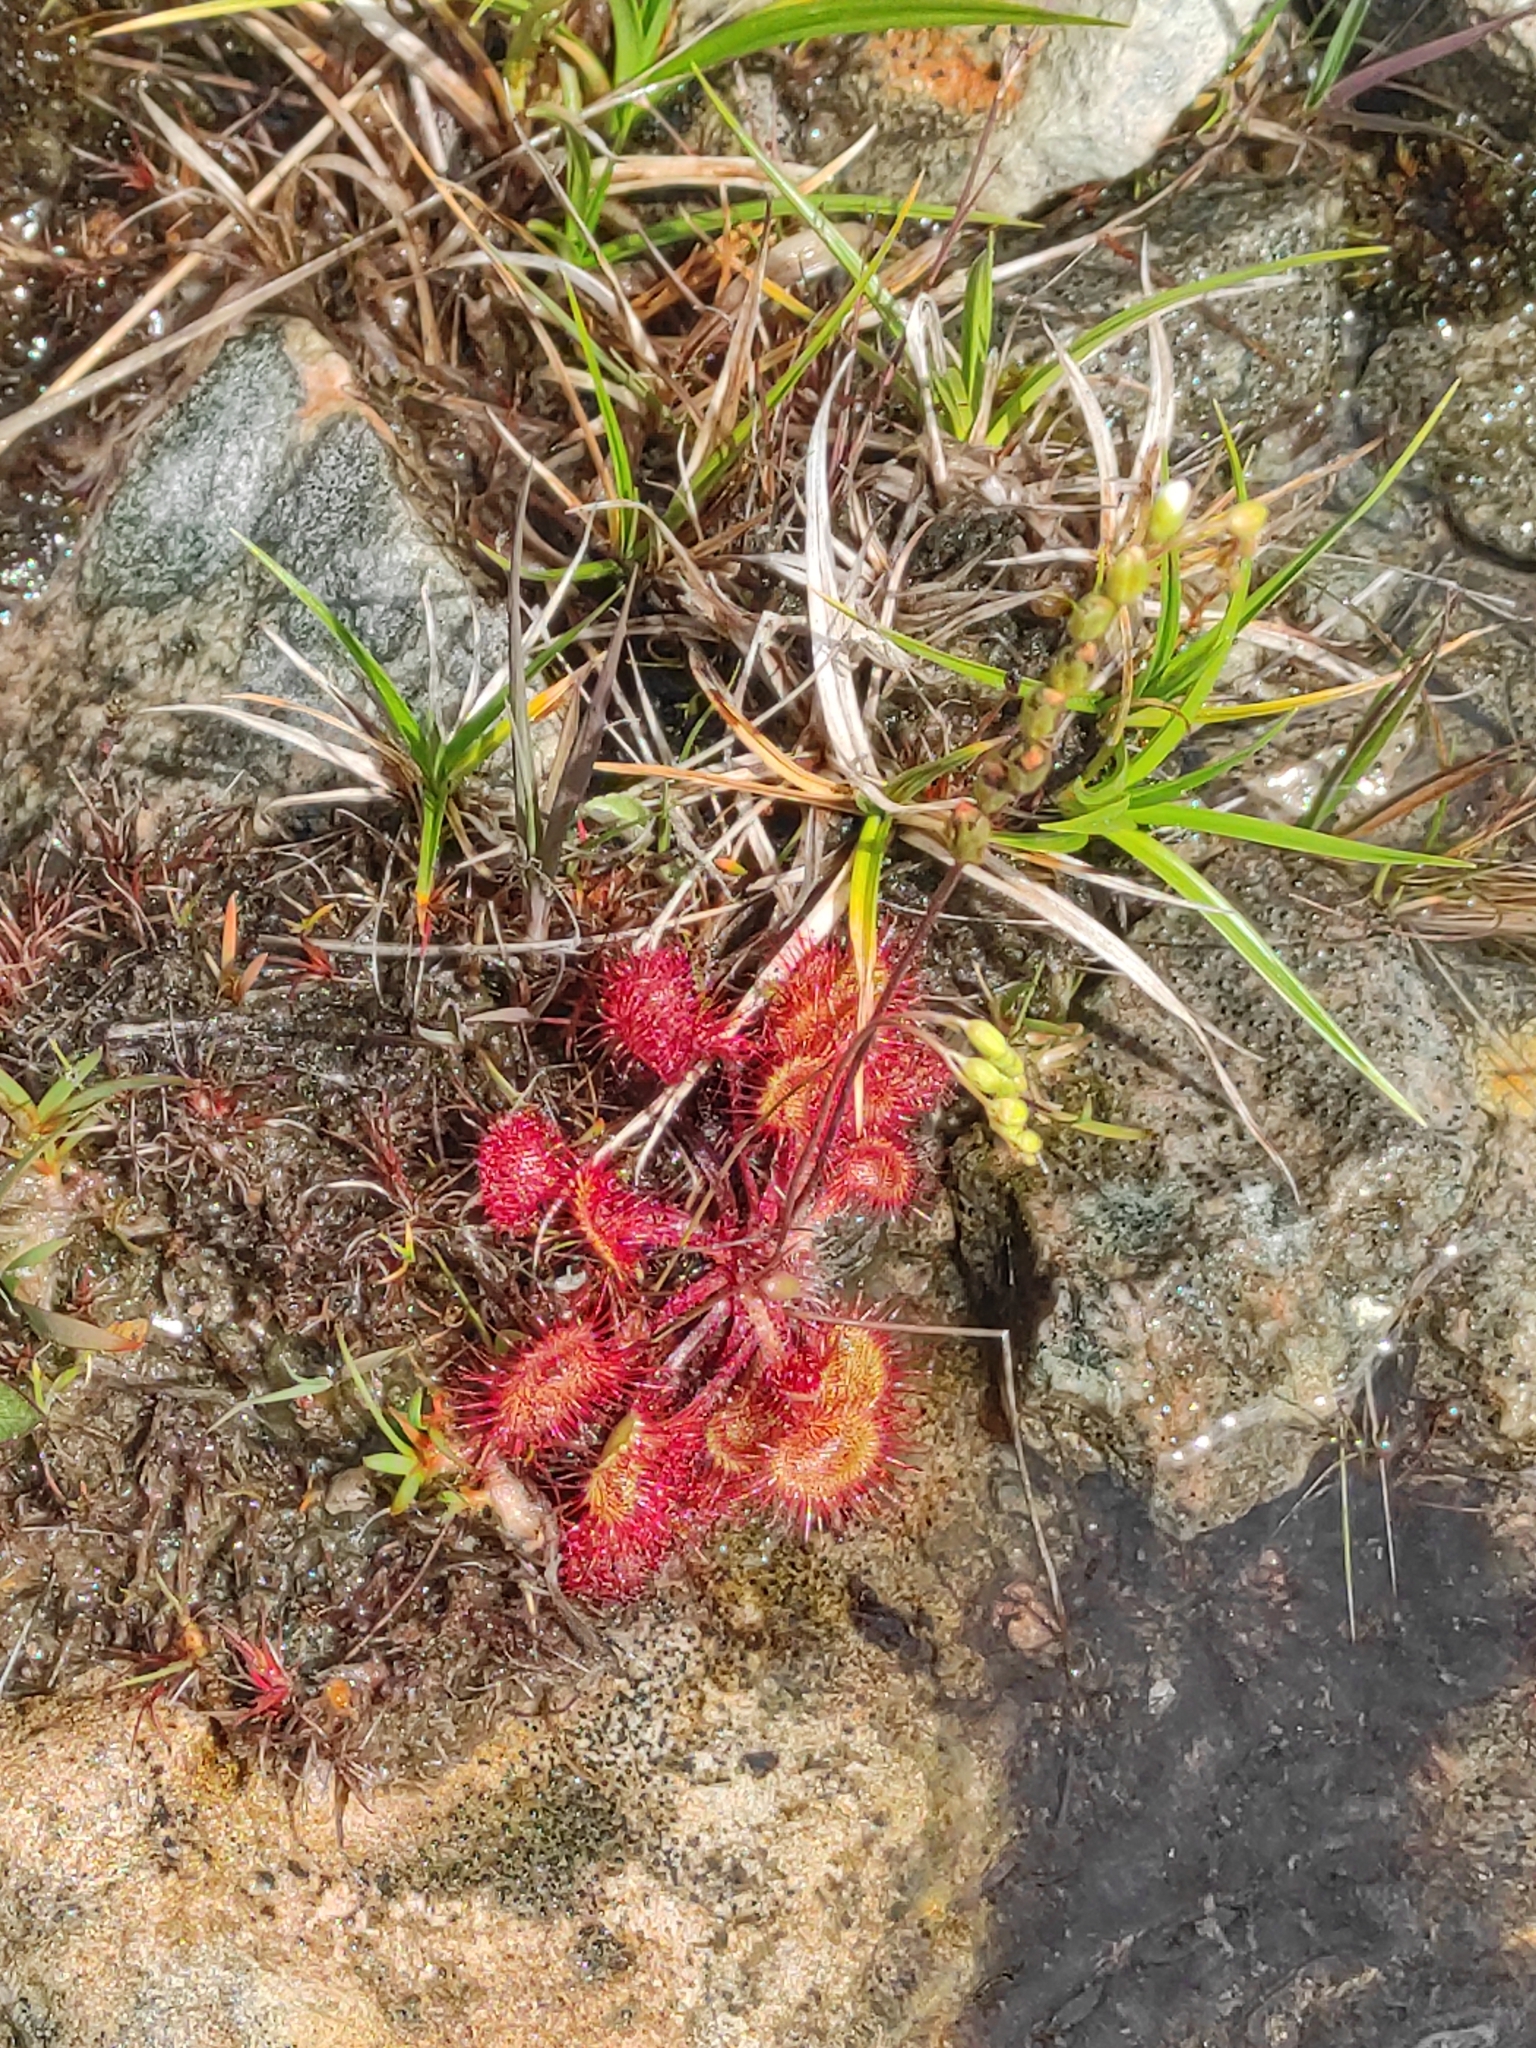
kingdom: Plantae
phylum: Tracheophyta
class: Magnoliopsida
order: Caryophyllales
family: Droseraceae
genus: Drosera
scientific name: Drosera rotundifolia
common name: Round-leaved sundew
